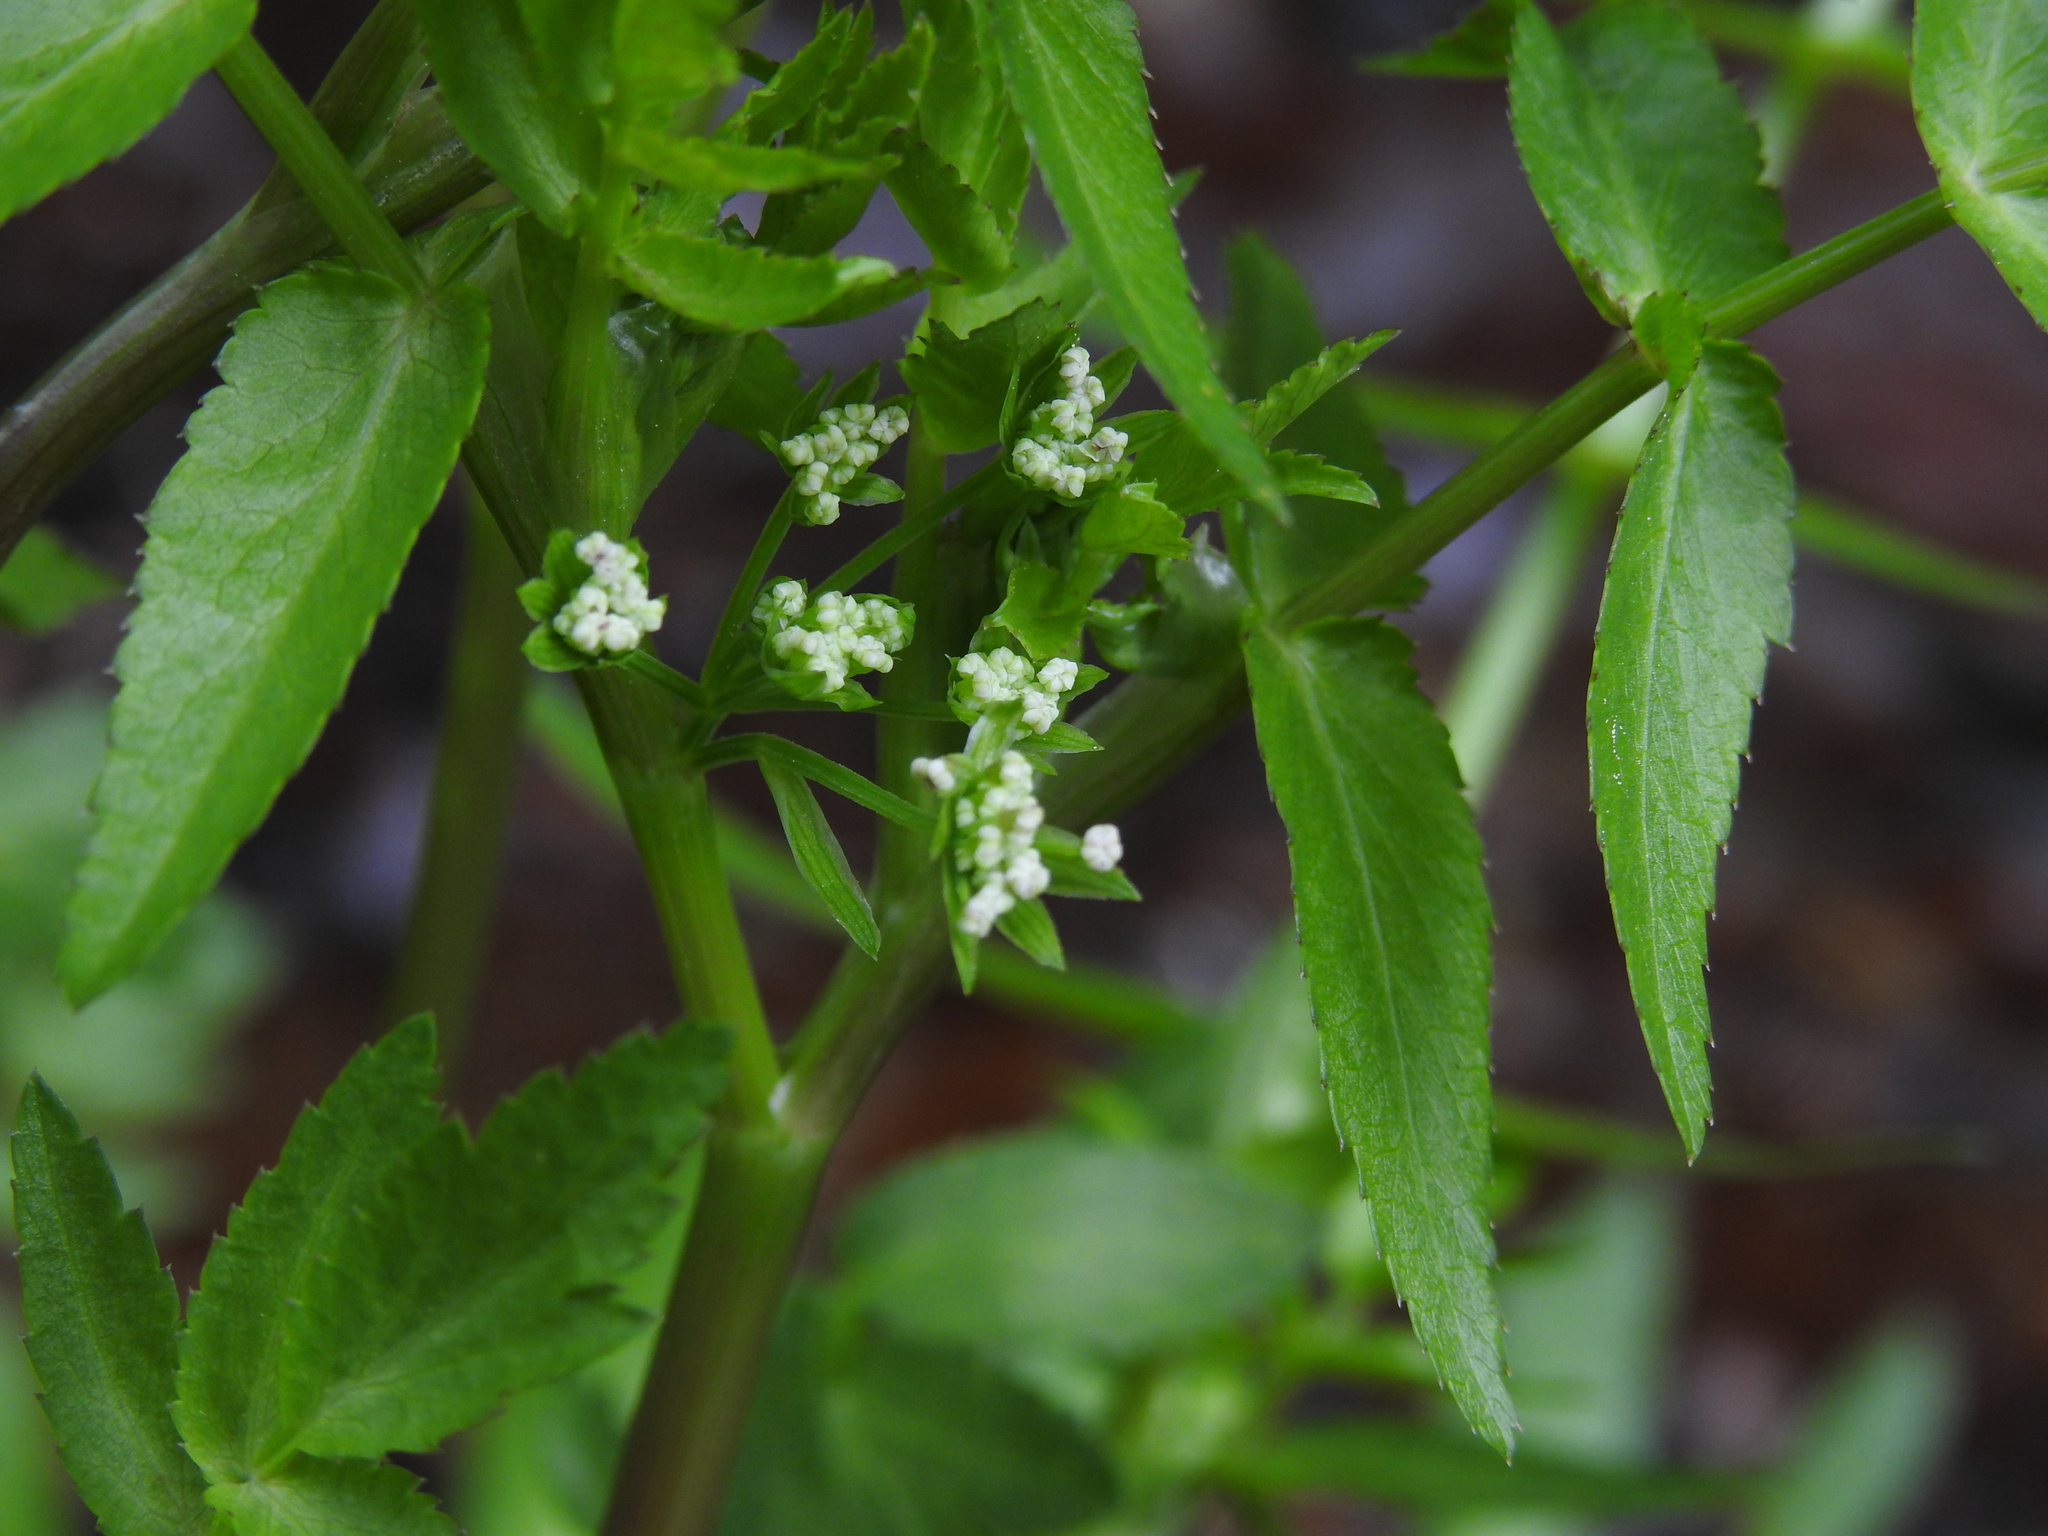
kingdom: Plantae
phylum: Tracheophyta
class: Magnoliopsida
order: Apiales
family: Apiaceae
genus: Helosciadium
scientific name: Helosciadium nodiflorum
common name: Fool's-watercress
